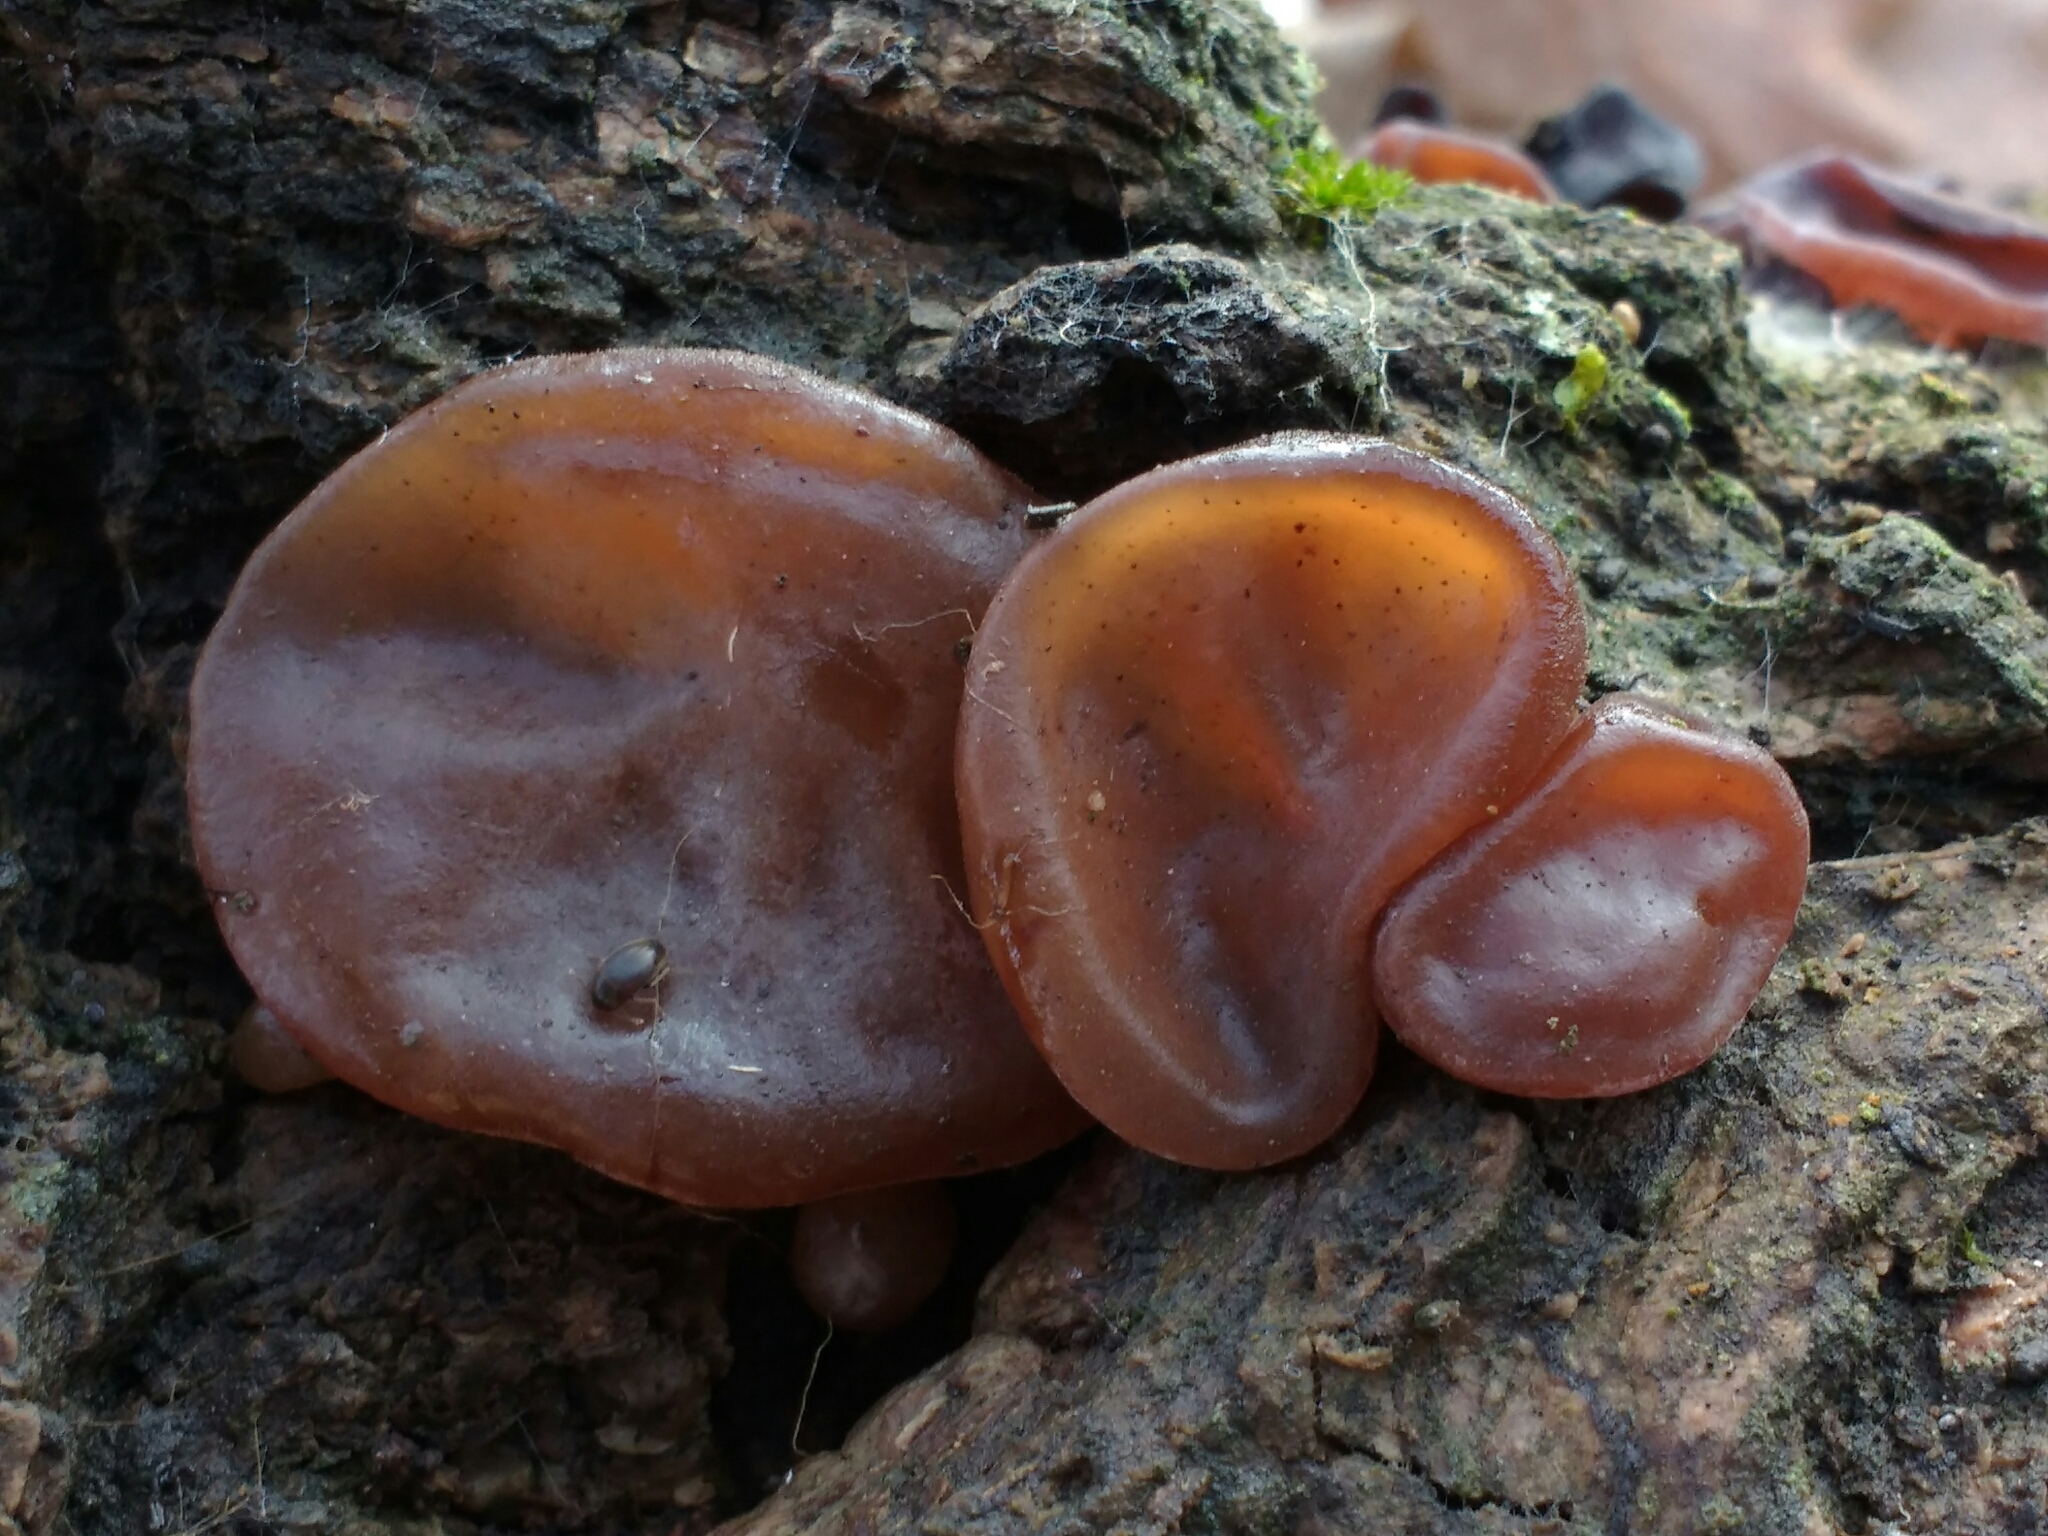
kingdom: Fungi
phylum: Basidiomycota
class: Agaricomycetes
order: Auriculariales
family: Auriculariaceae
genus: Auricularia
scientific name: Auricularia auricula-judae
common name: Jelly ear
